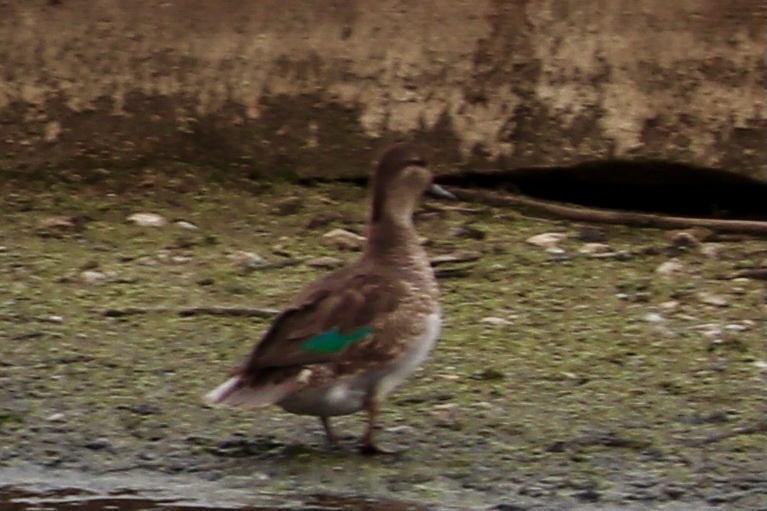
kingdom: Animalia
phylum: Chordata
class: Aves
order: Anseriformes
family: Anatidae
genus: Anas
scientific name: Anas crecca
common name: Eurasian teal
